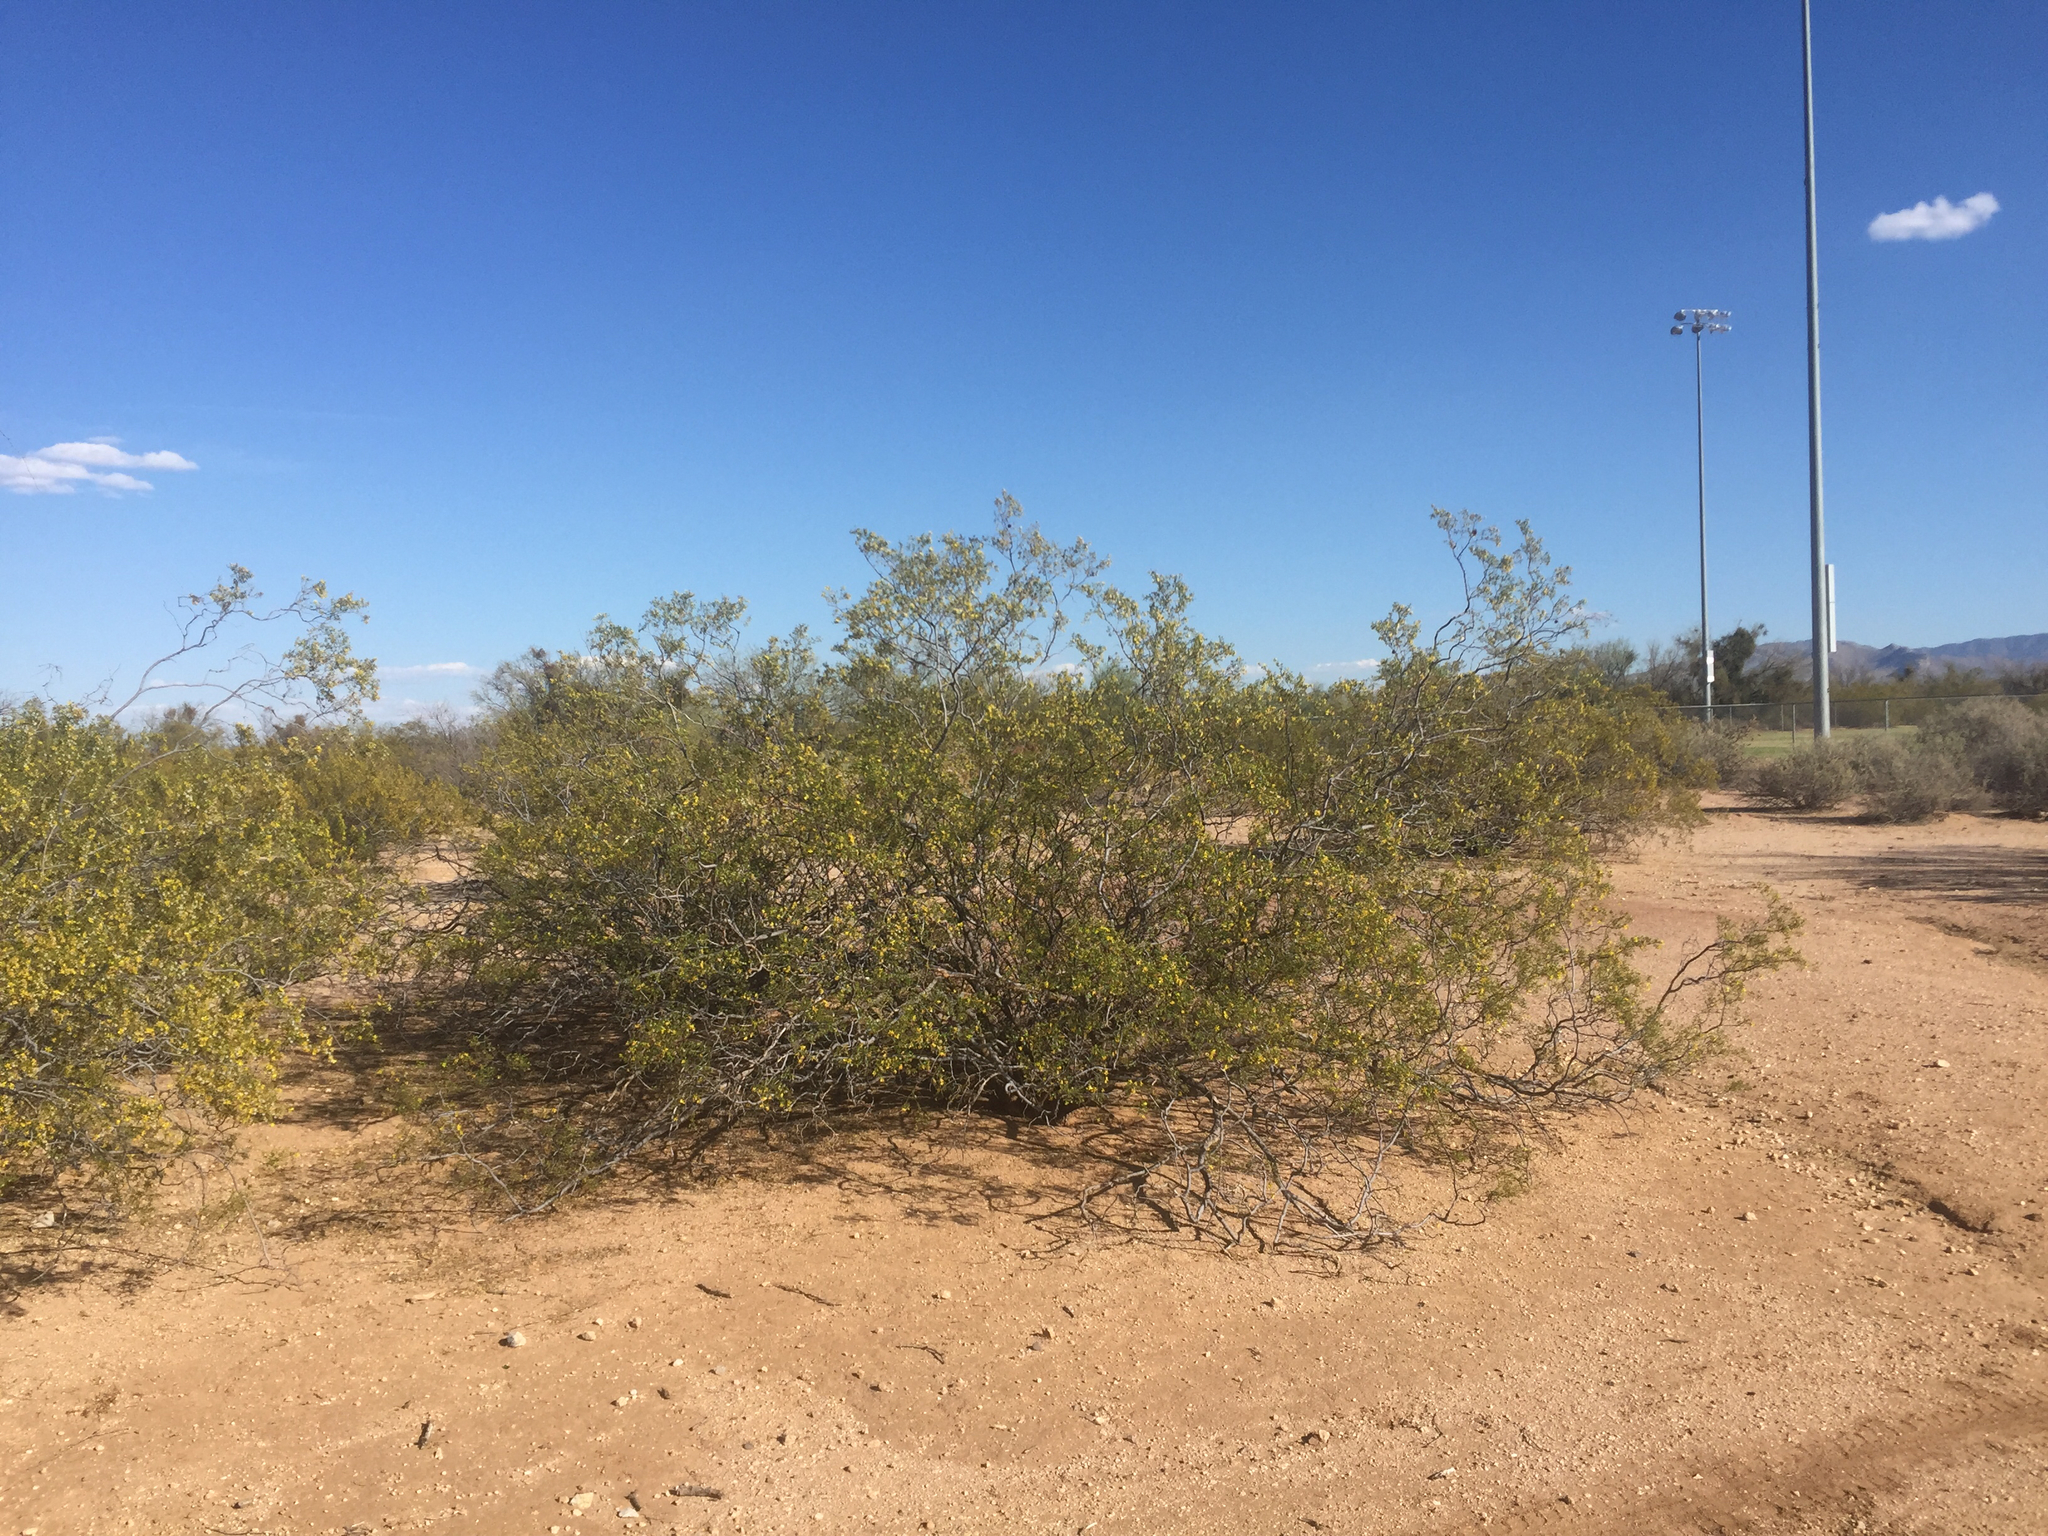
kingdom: Plantae
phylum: Tracheophyta
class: Magnoliopsida
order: Zygophyllales
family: Zygophyllaceae
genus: Larrea
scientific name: Larrea tridentata
